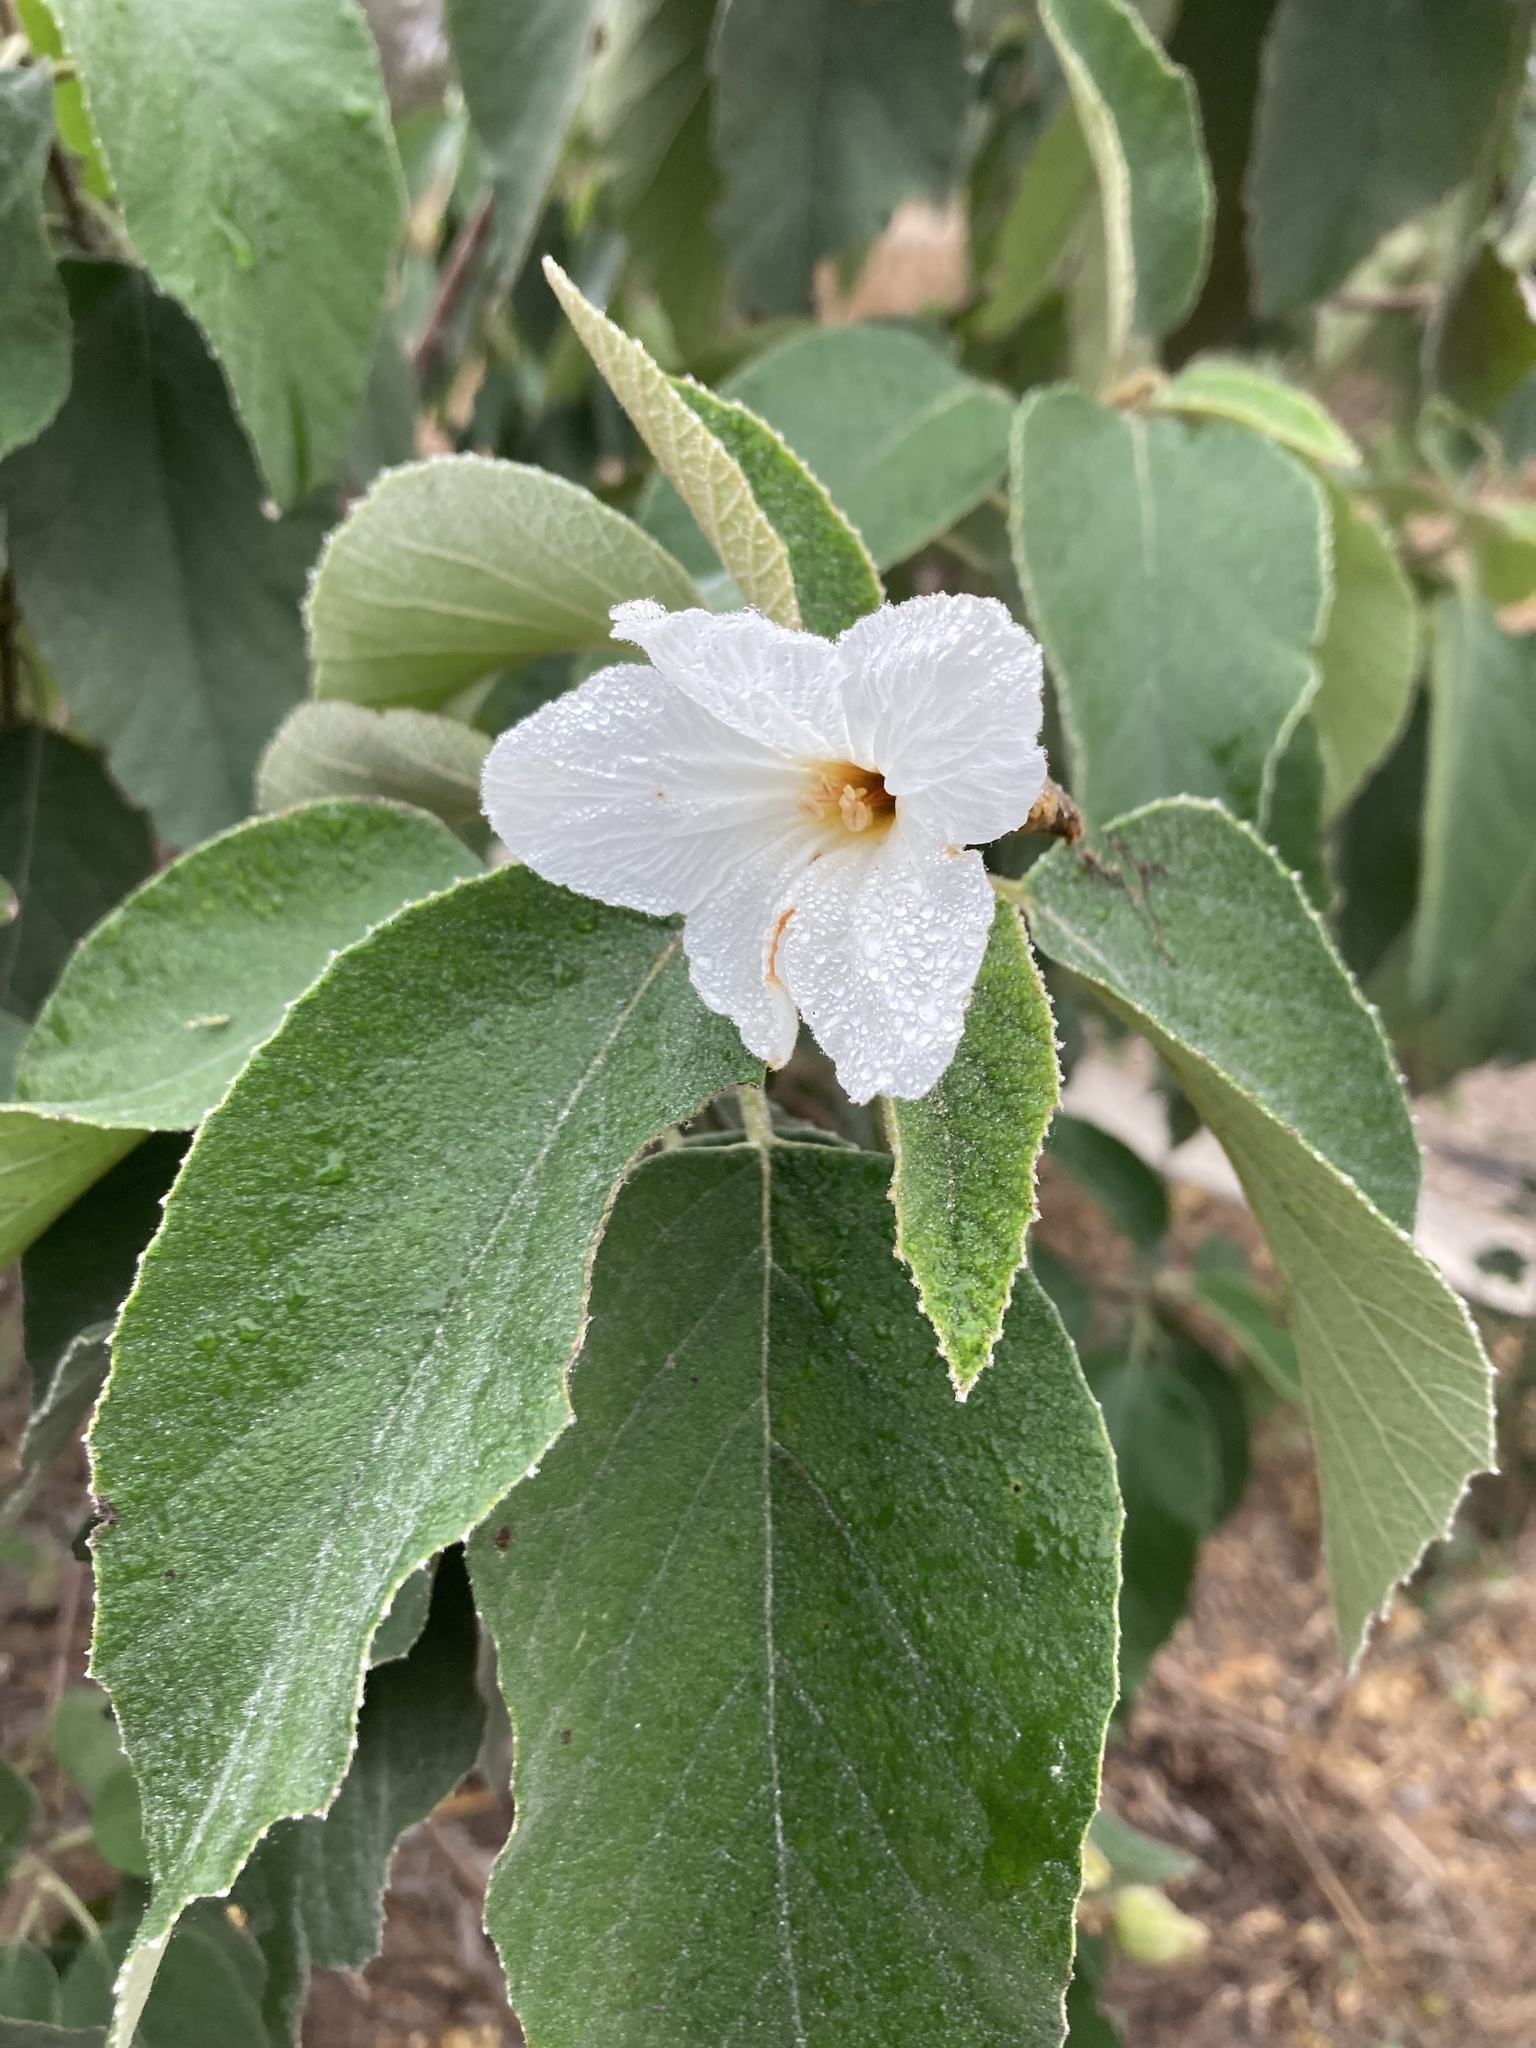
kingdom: Plantae
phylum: Tracheophyta
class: Magnoliopsida
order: Boraginales
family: Cordiaceae
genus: Cordia
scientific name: Cordia boissieri
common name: Mexican-olive
